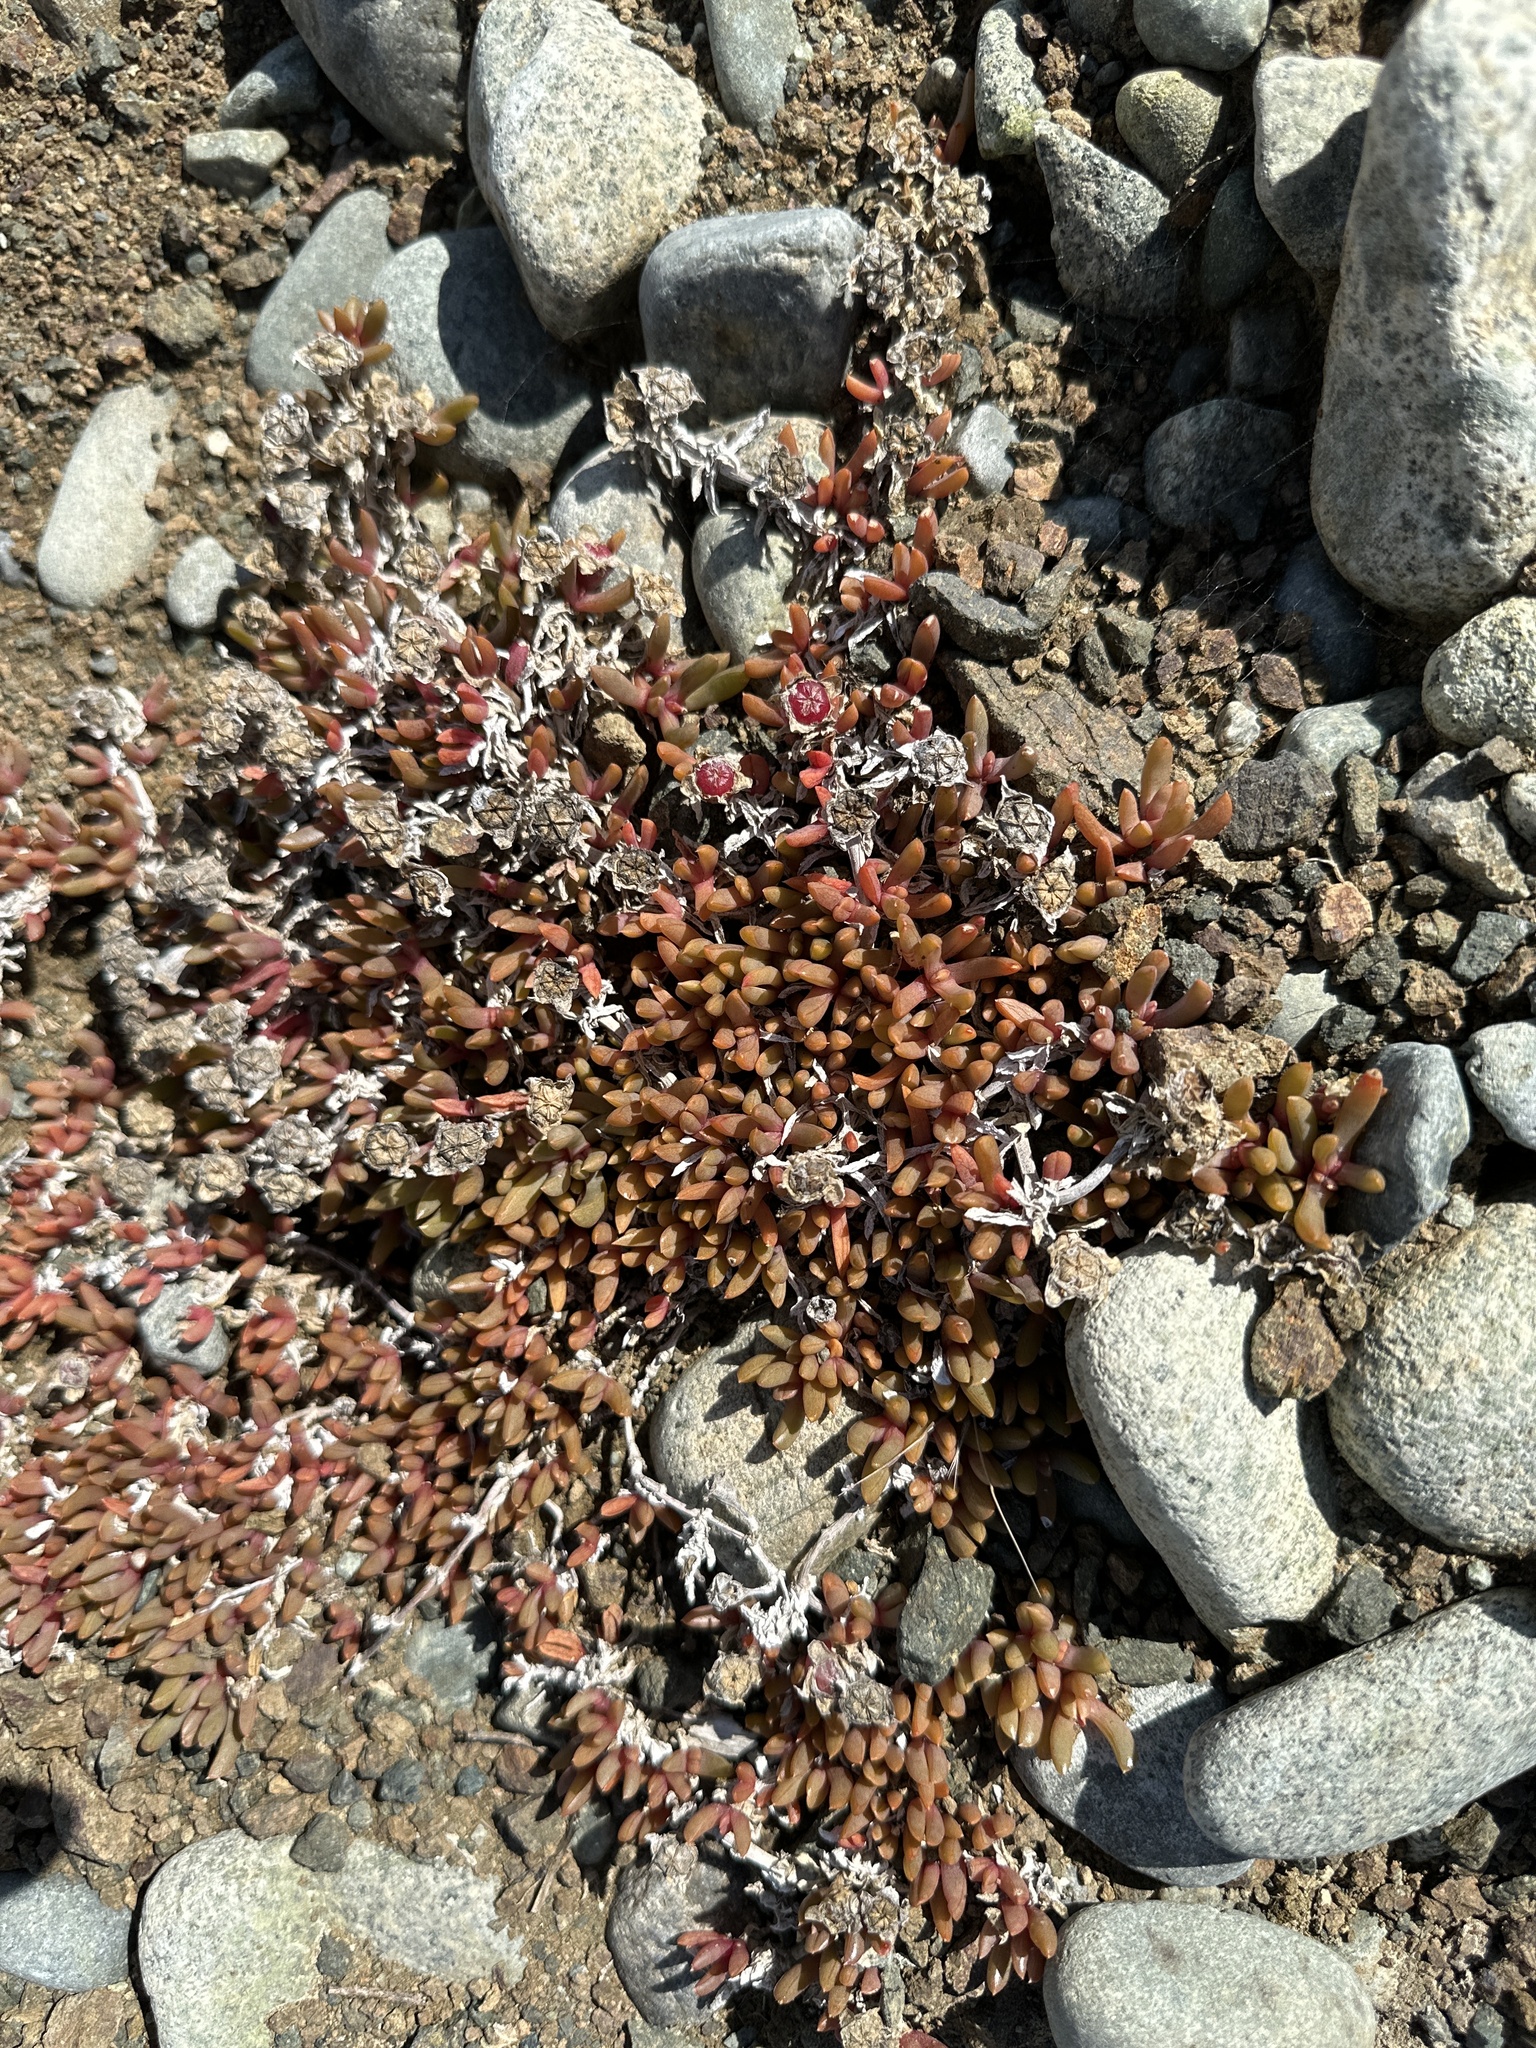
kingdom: Plantae
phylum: Tracheophyta
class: Magnoliopsida
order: Caryophyllales
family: Aizoaceae
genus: Disphyma
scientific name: Disphyma australe
